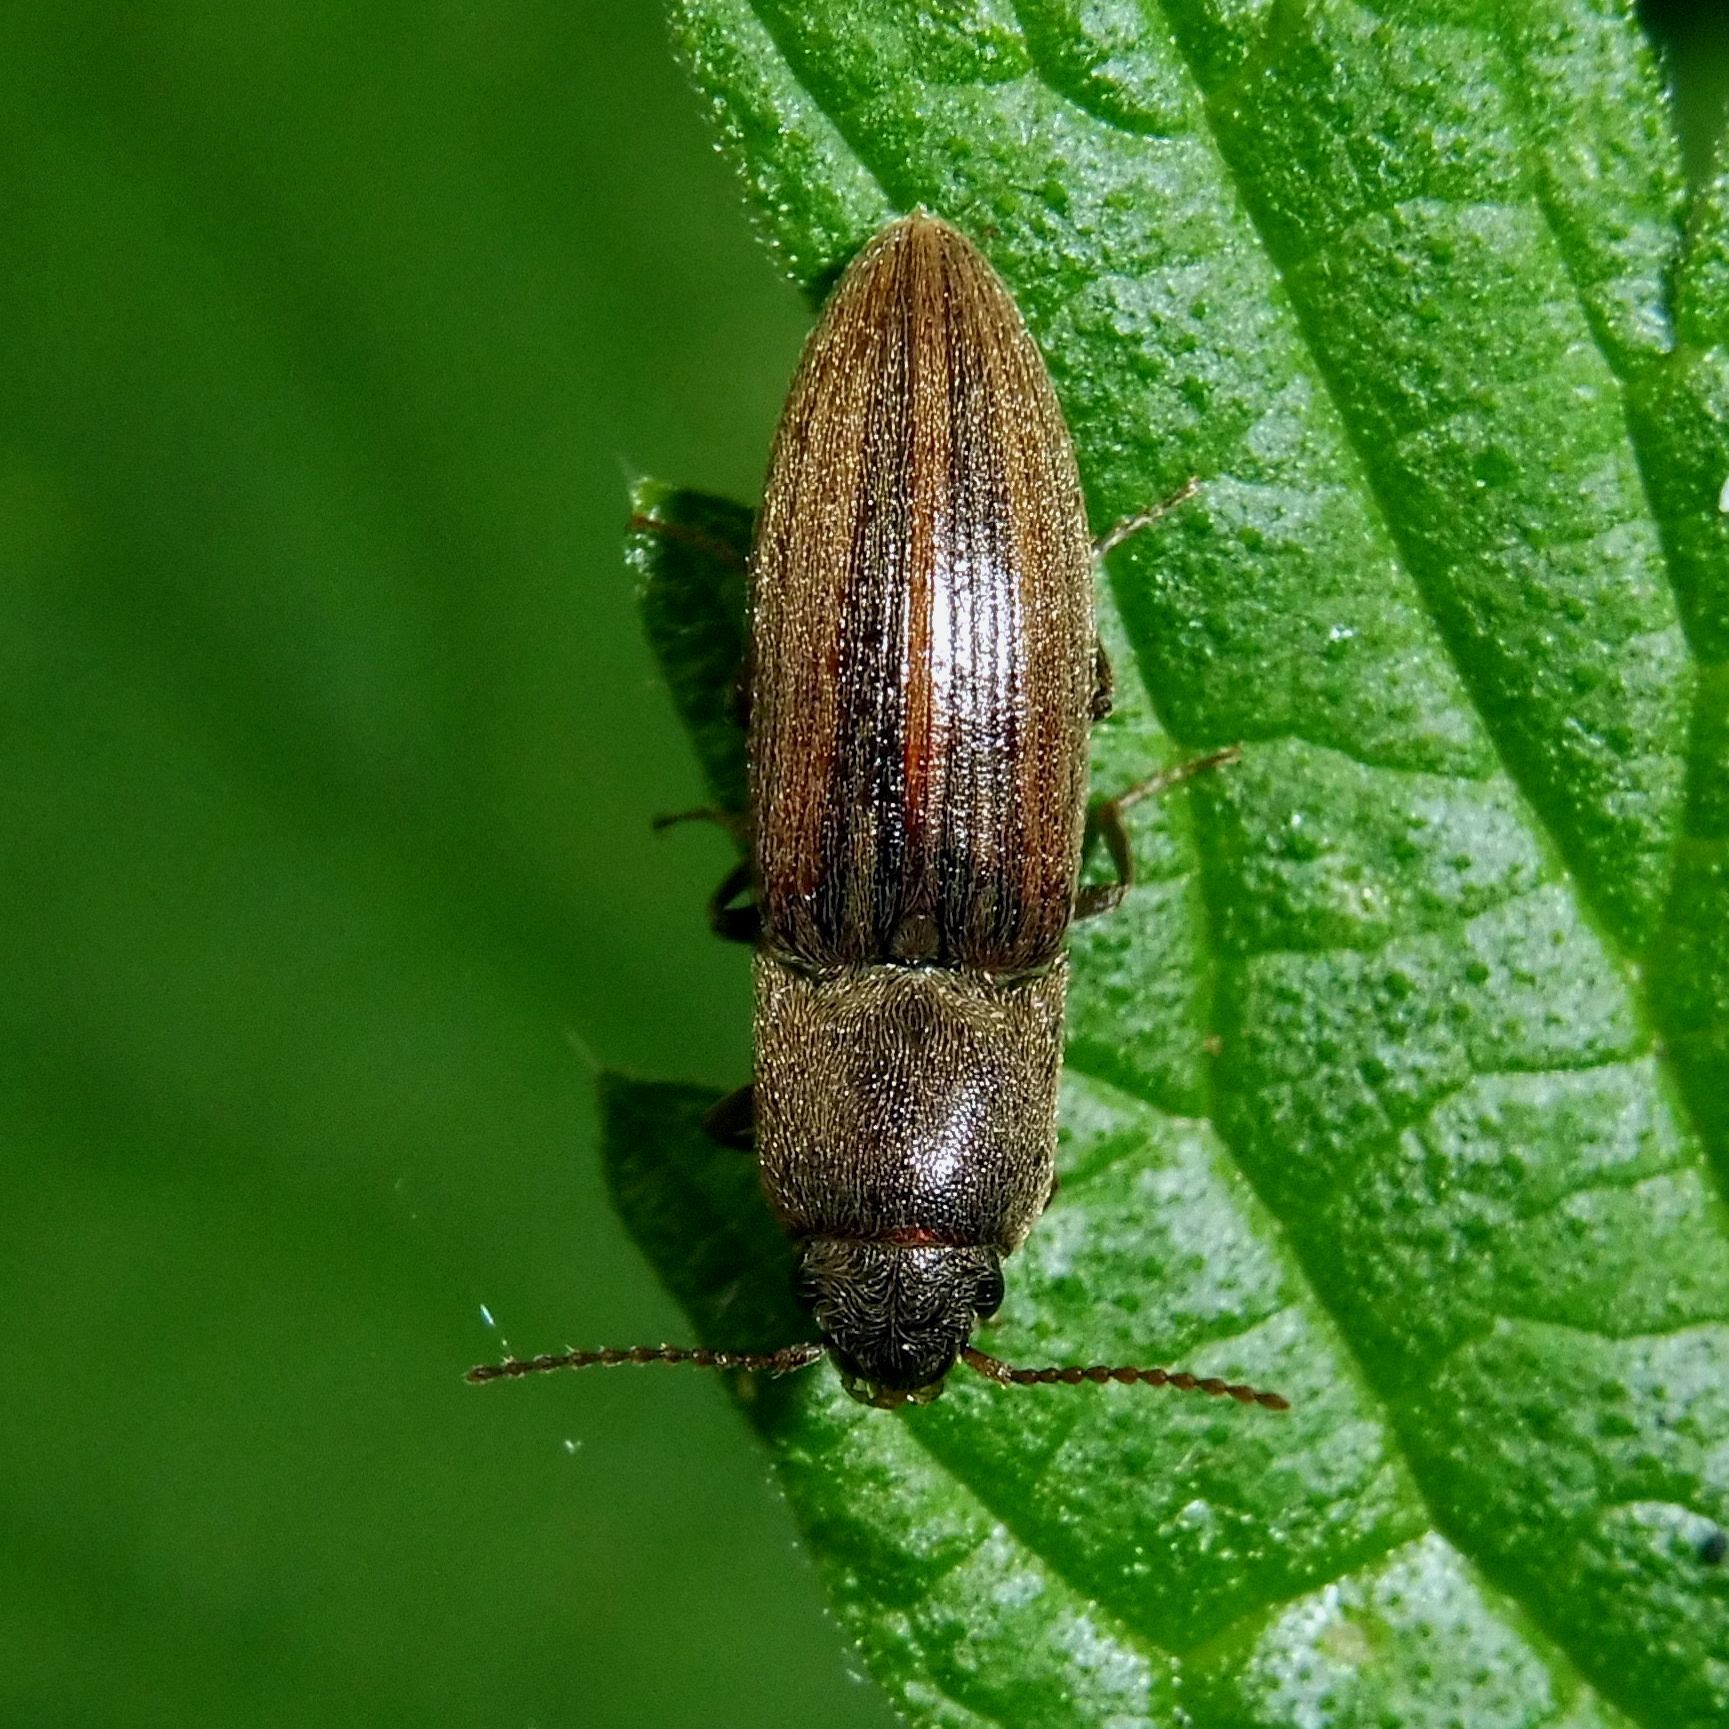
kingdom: Animalia
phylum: Arthropoda
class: Insecta
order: Coleoptera
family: Elateridae
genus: Agriotes
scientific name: Agriotes lineatus
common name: Lined click beetle
